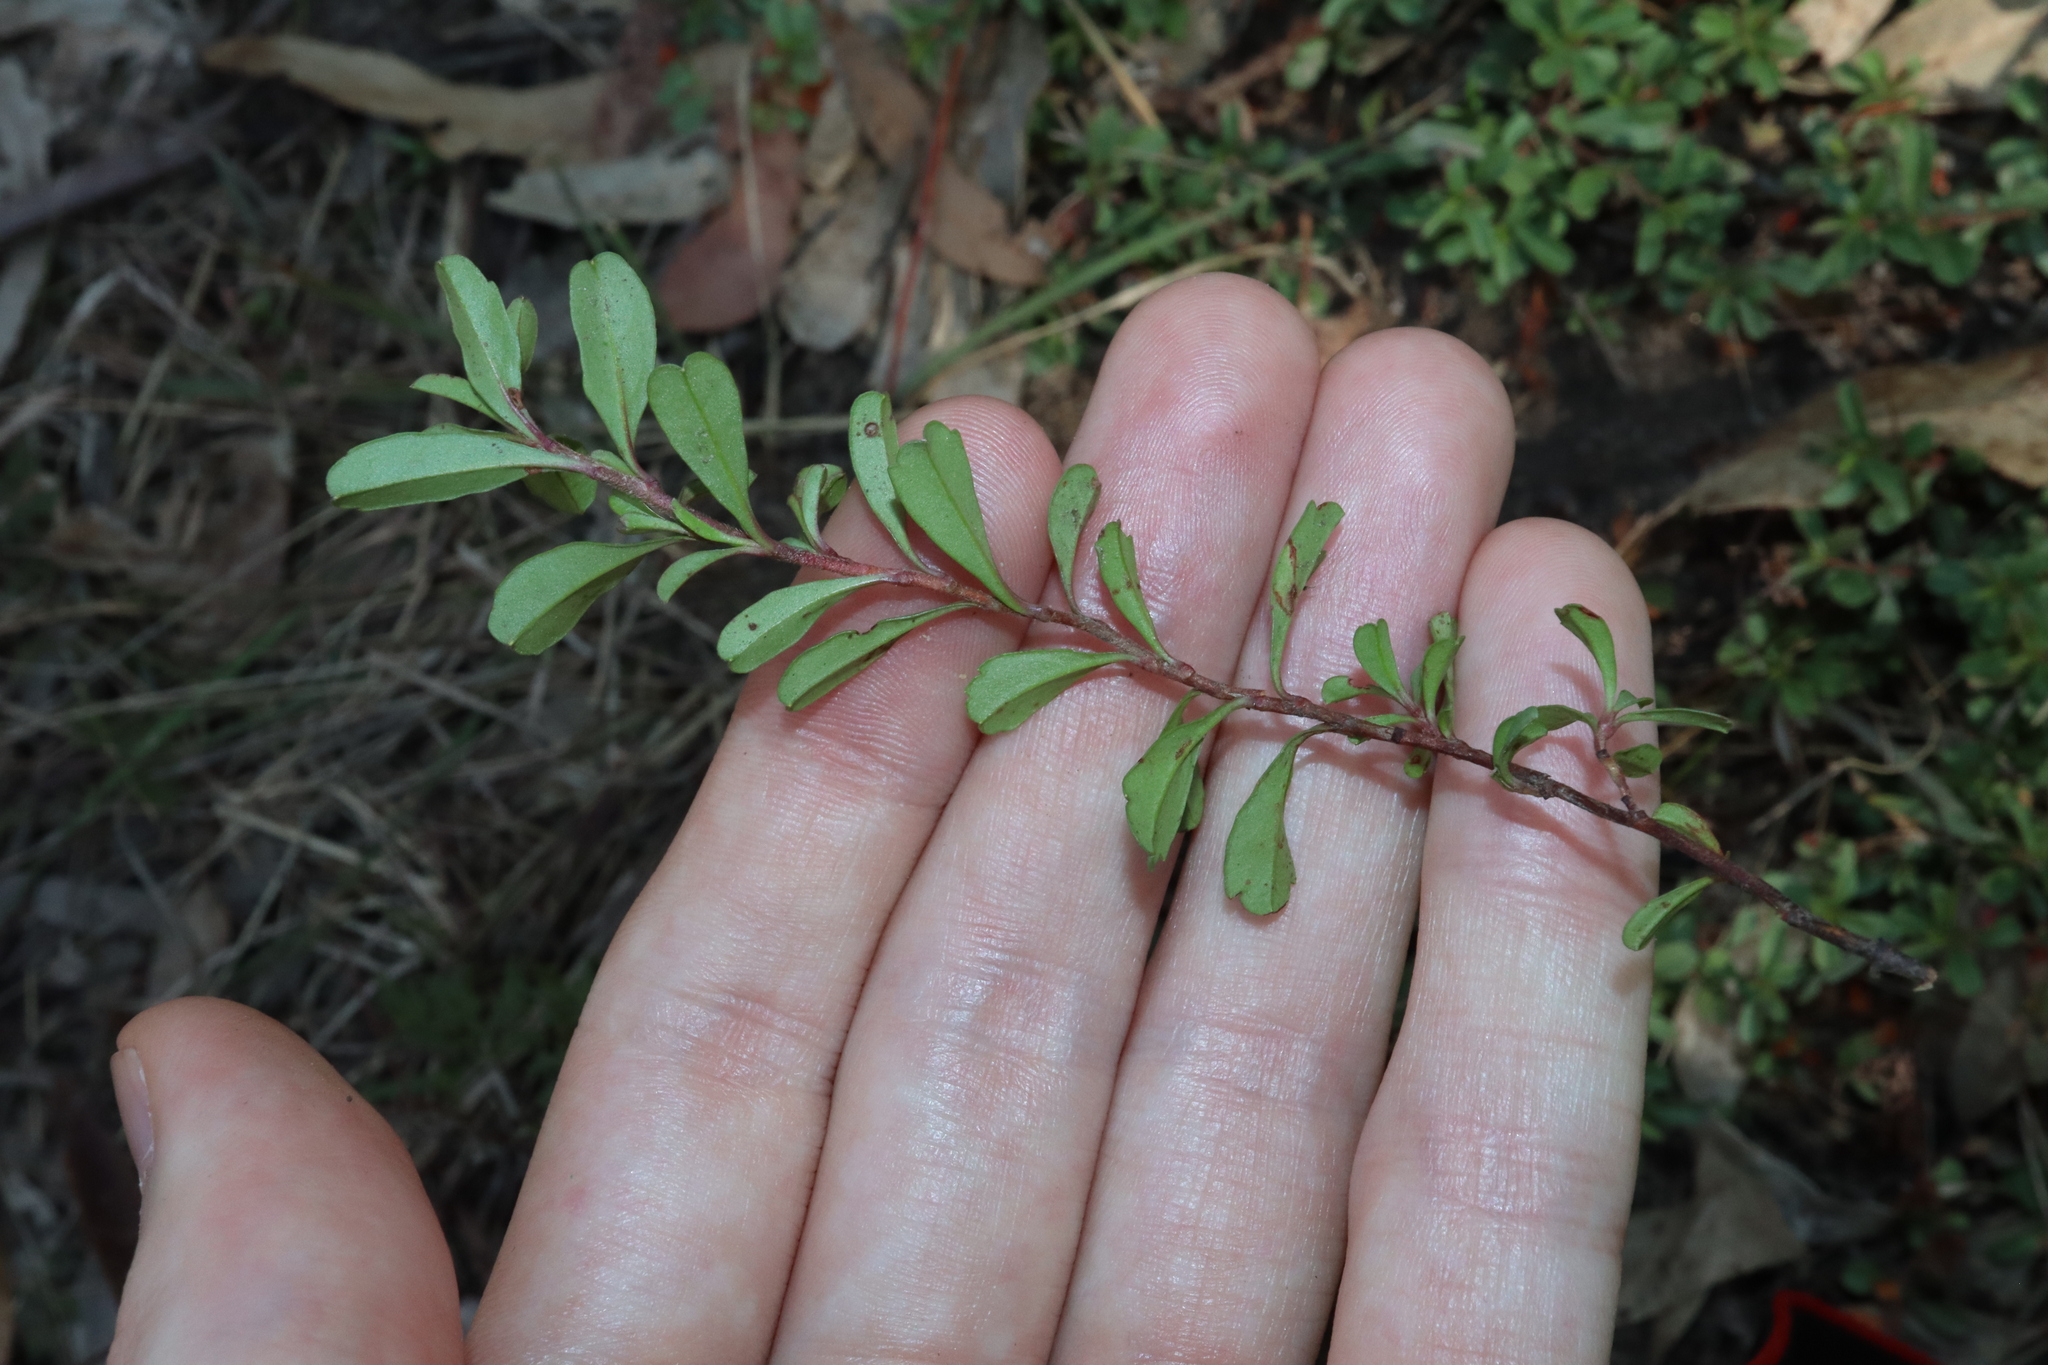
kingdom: Plantae
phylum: Tracheophyta
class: Magnoliopsida
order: Dilleniales
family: Dilleniaceae
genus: Hibbertia
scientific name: Hibbertia diffusa
